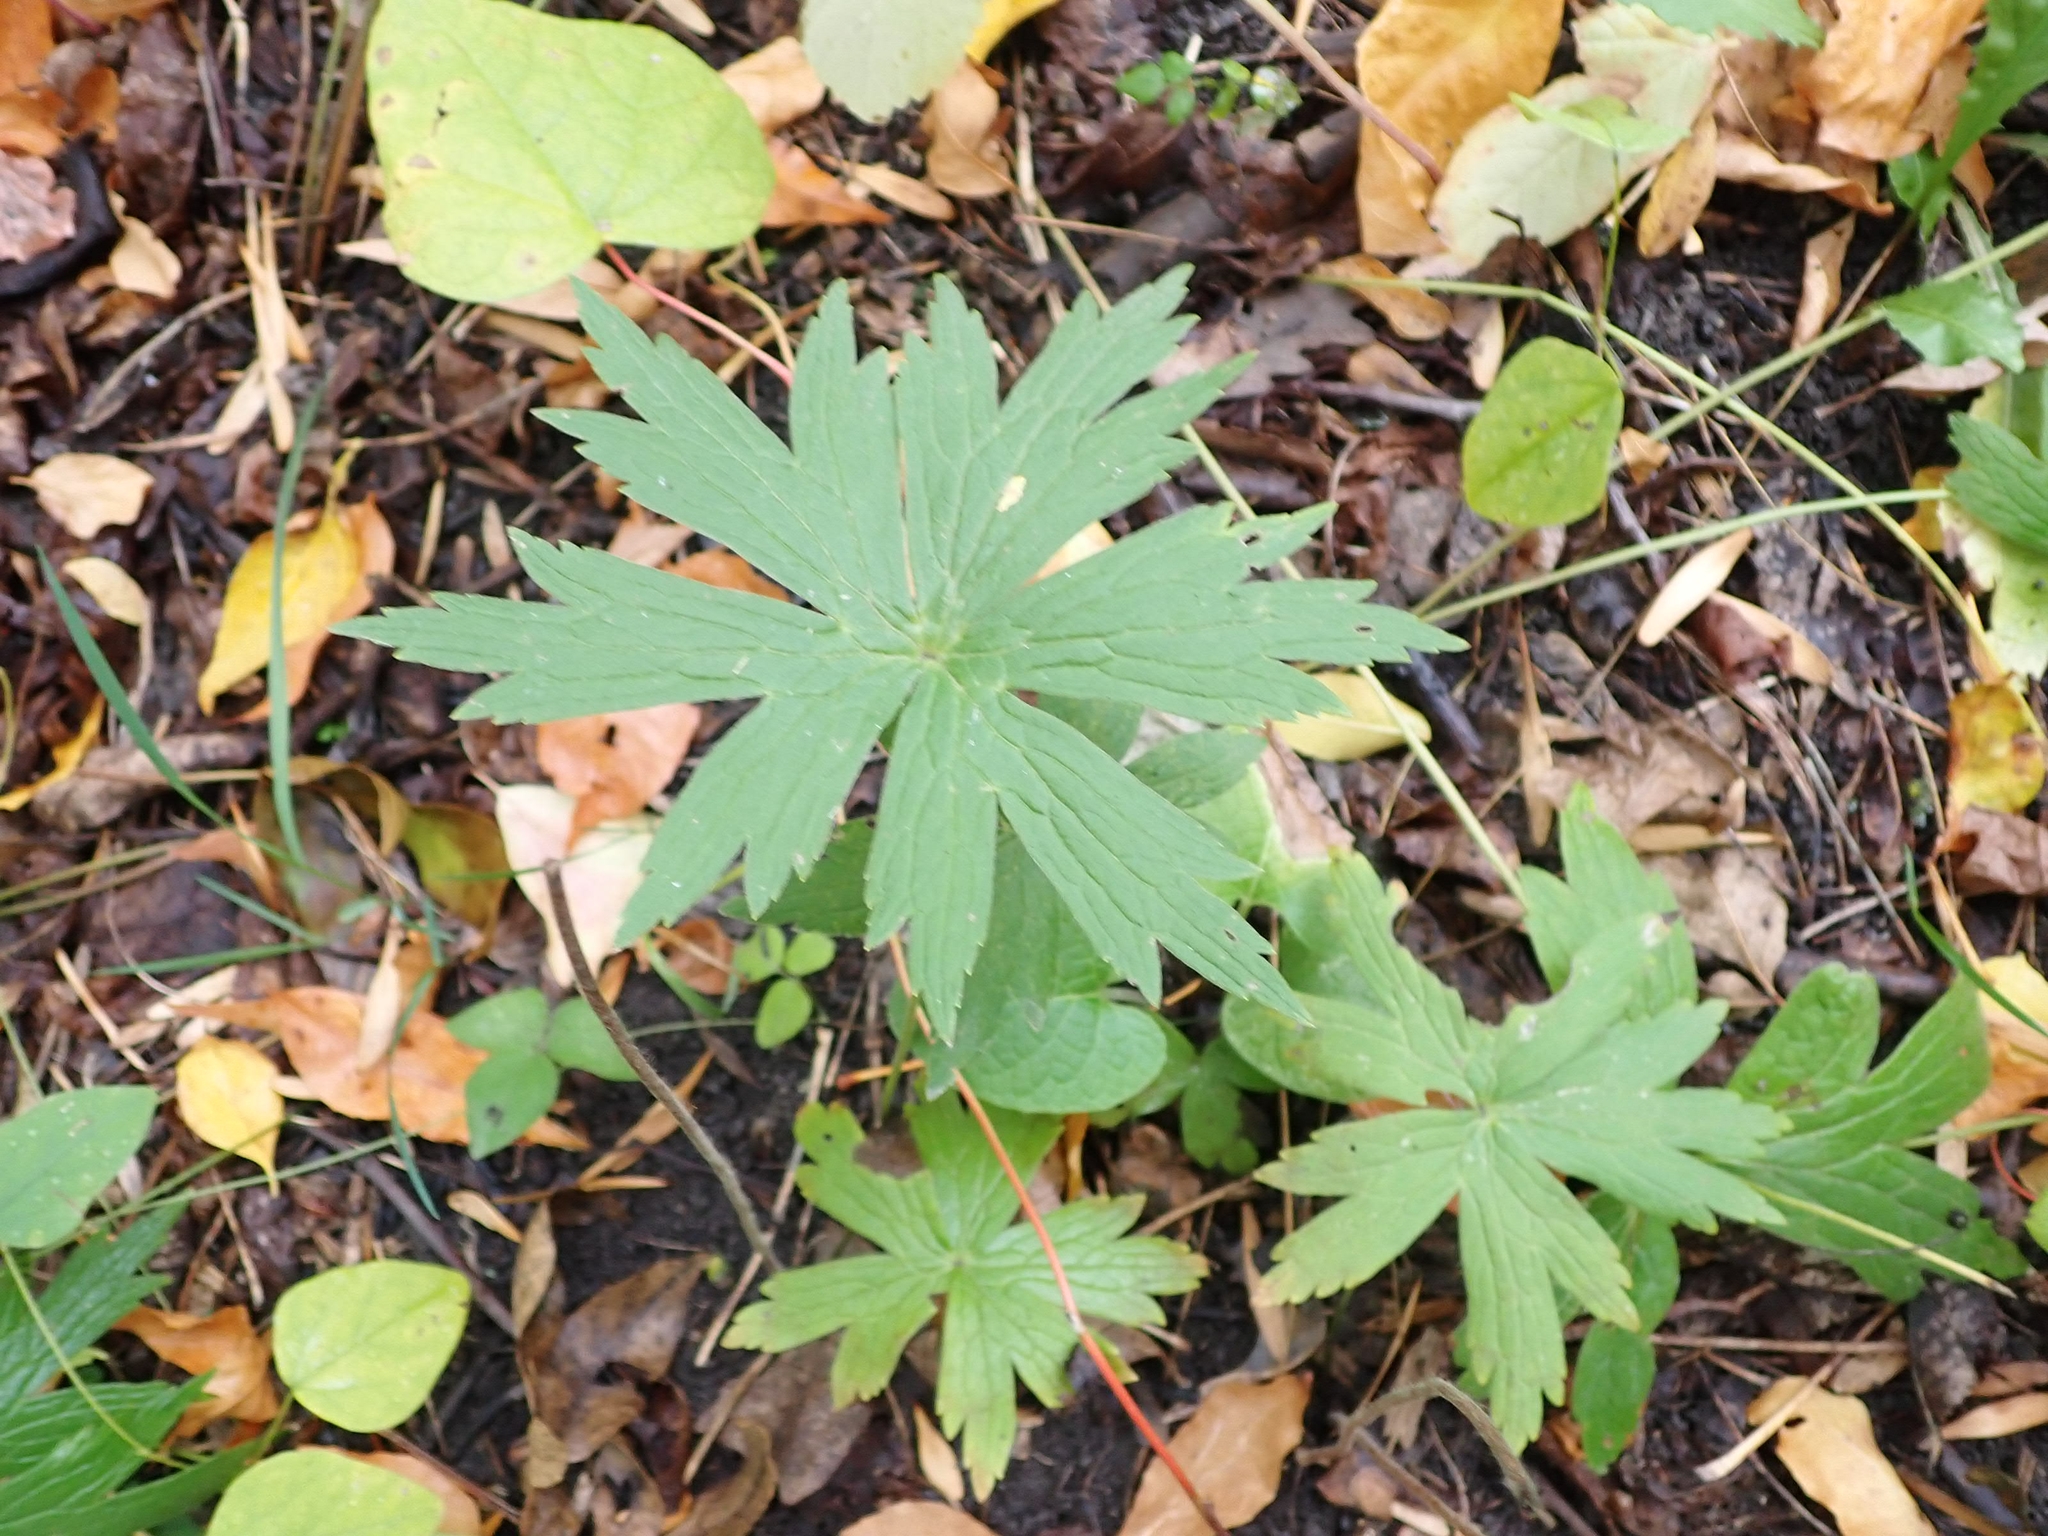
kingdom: Plantae
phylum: Tracheophyta
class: Magnoliopsida
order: Ranunculales
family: Ranunculaceae
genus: Anemonastrum
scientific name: Anemonastrum canadense
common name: Canada anemone
